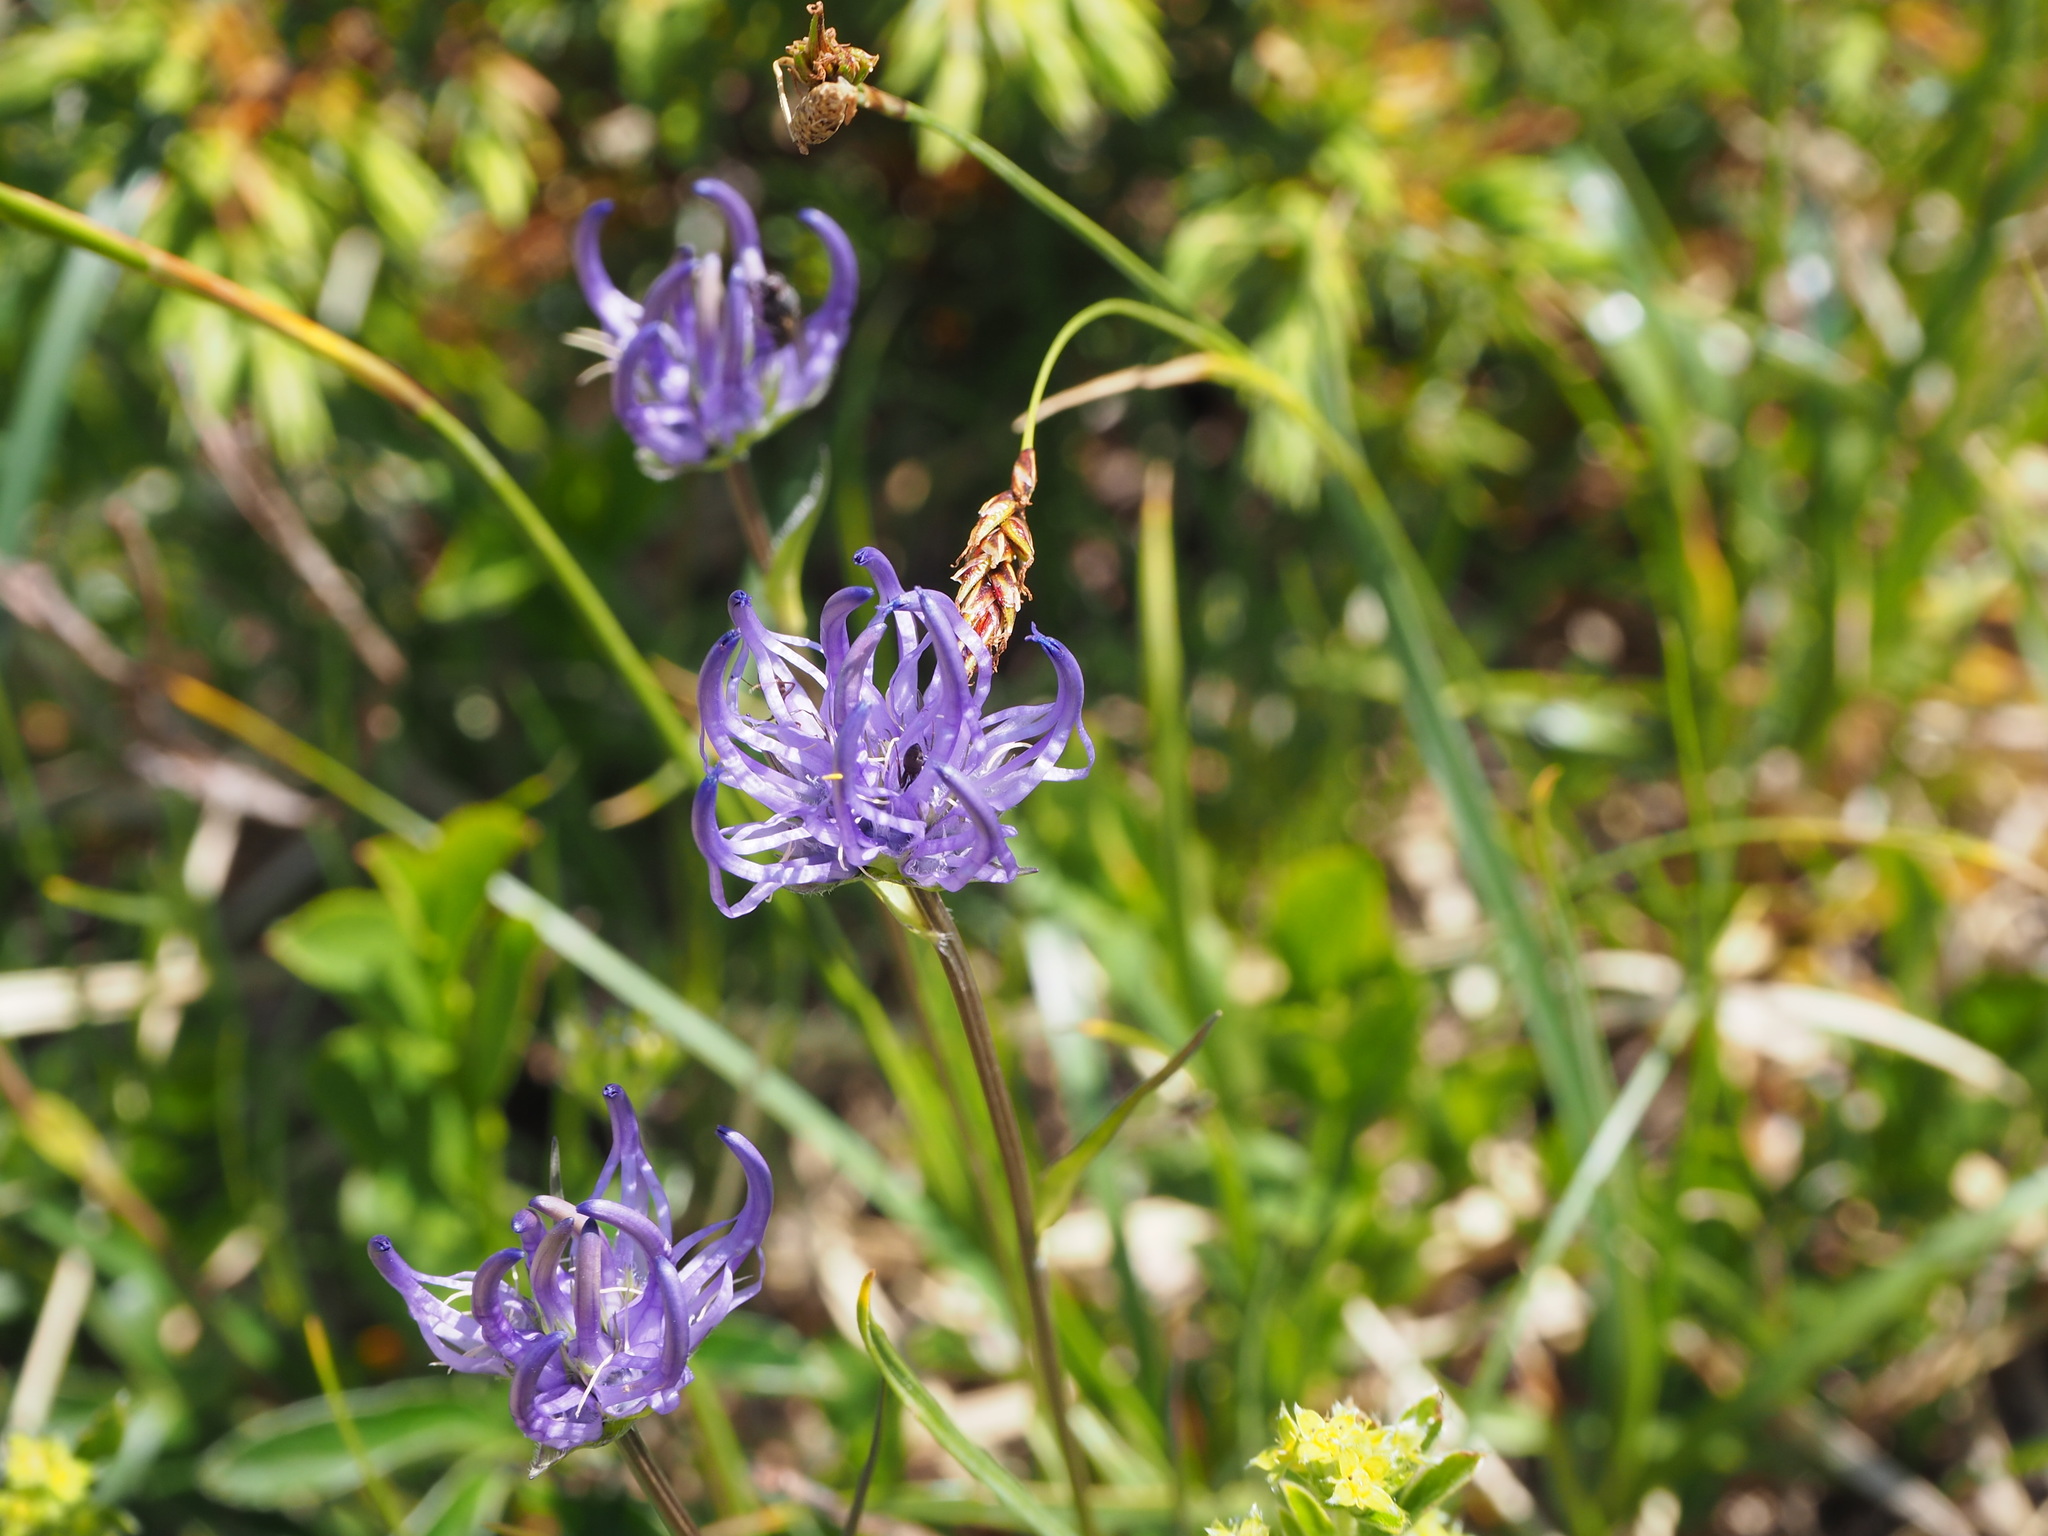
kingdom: Plantae
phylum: Tracheophyta
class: Magnoliopsida
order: Asterales
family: Campanulaceae
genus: Phyteuma
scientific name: Phyteuma hemisphaericum
